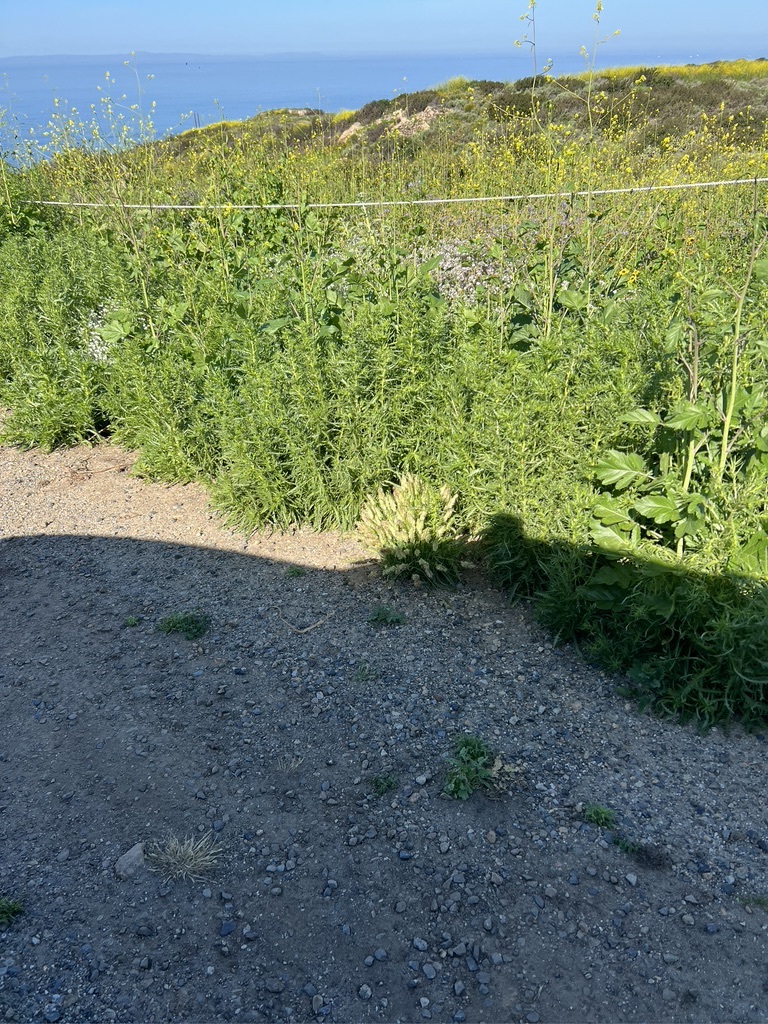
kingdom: Plantae
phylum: Tracheophyta
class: Liliopsida
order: Poales
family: Poaceae
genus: Lamarckia
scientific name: Lamarckia aurea
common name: Golden dog's-tail
